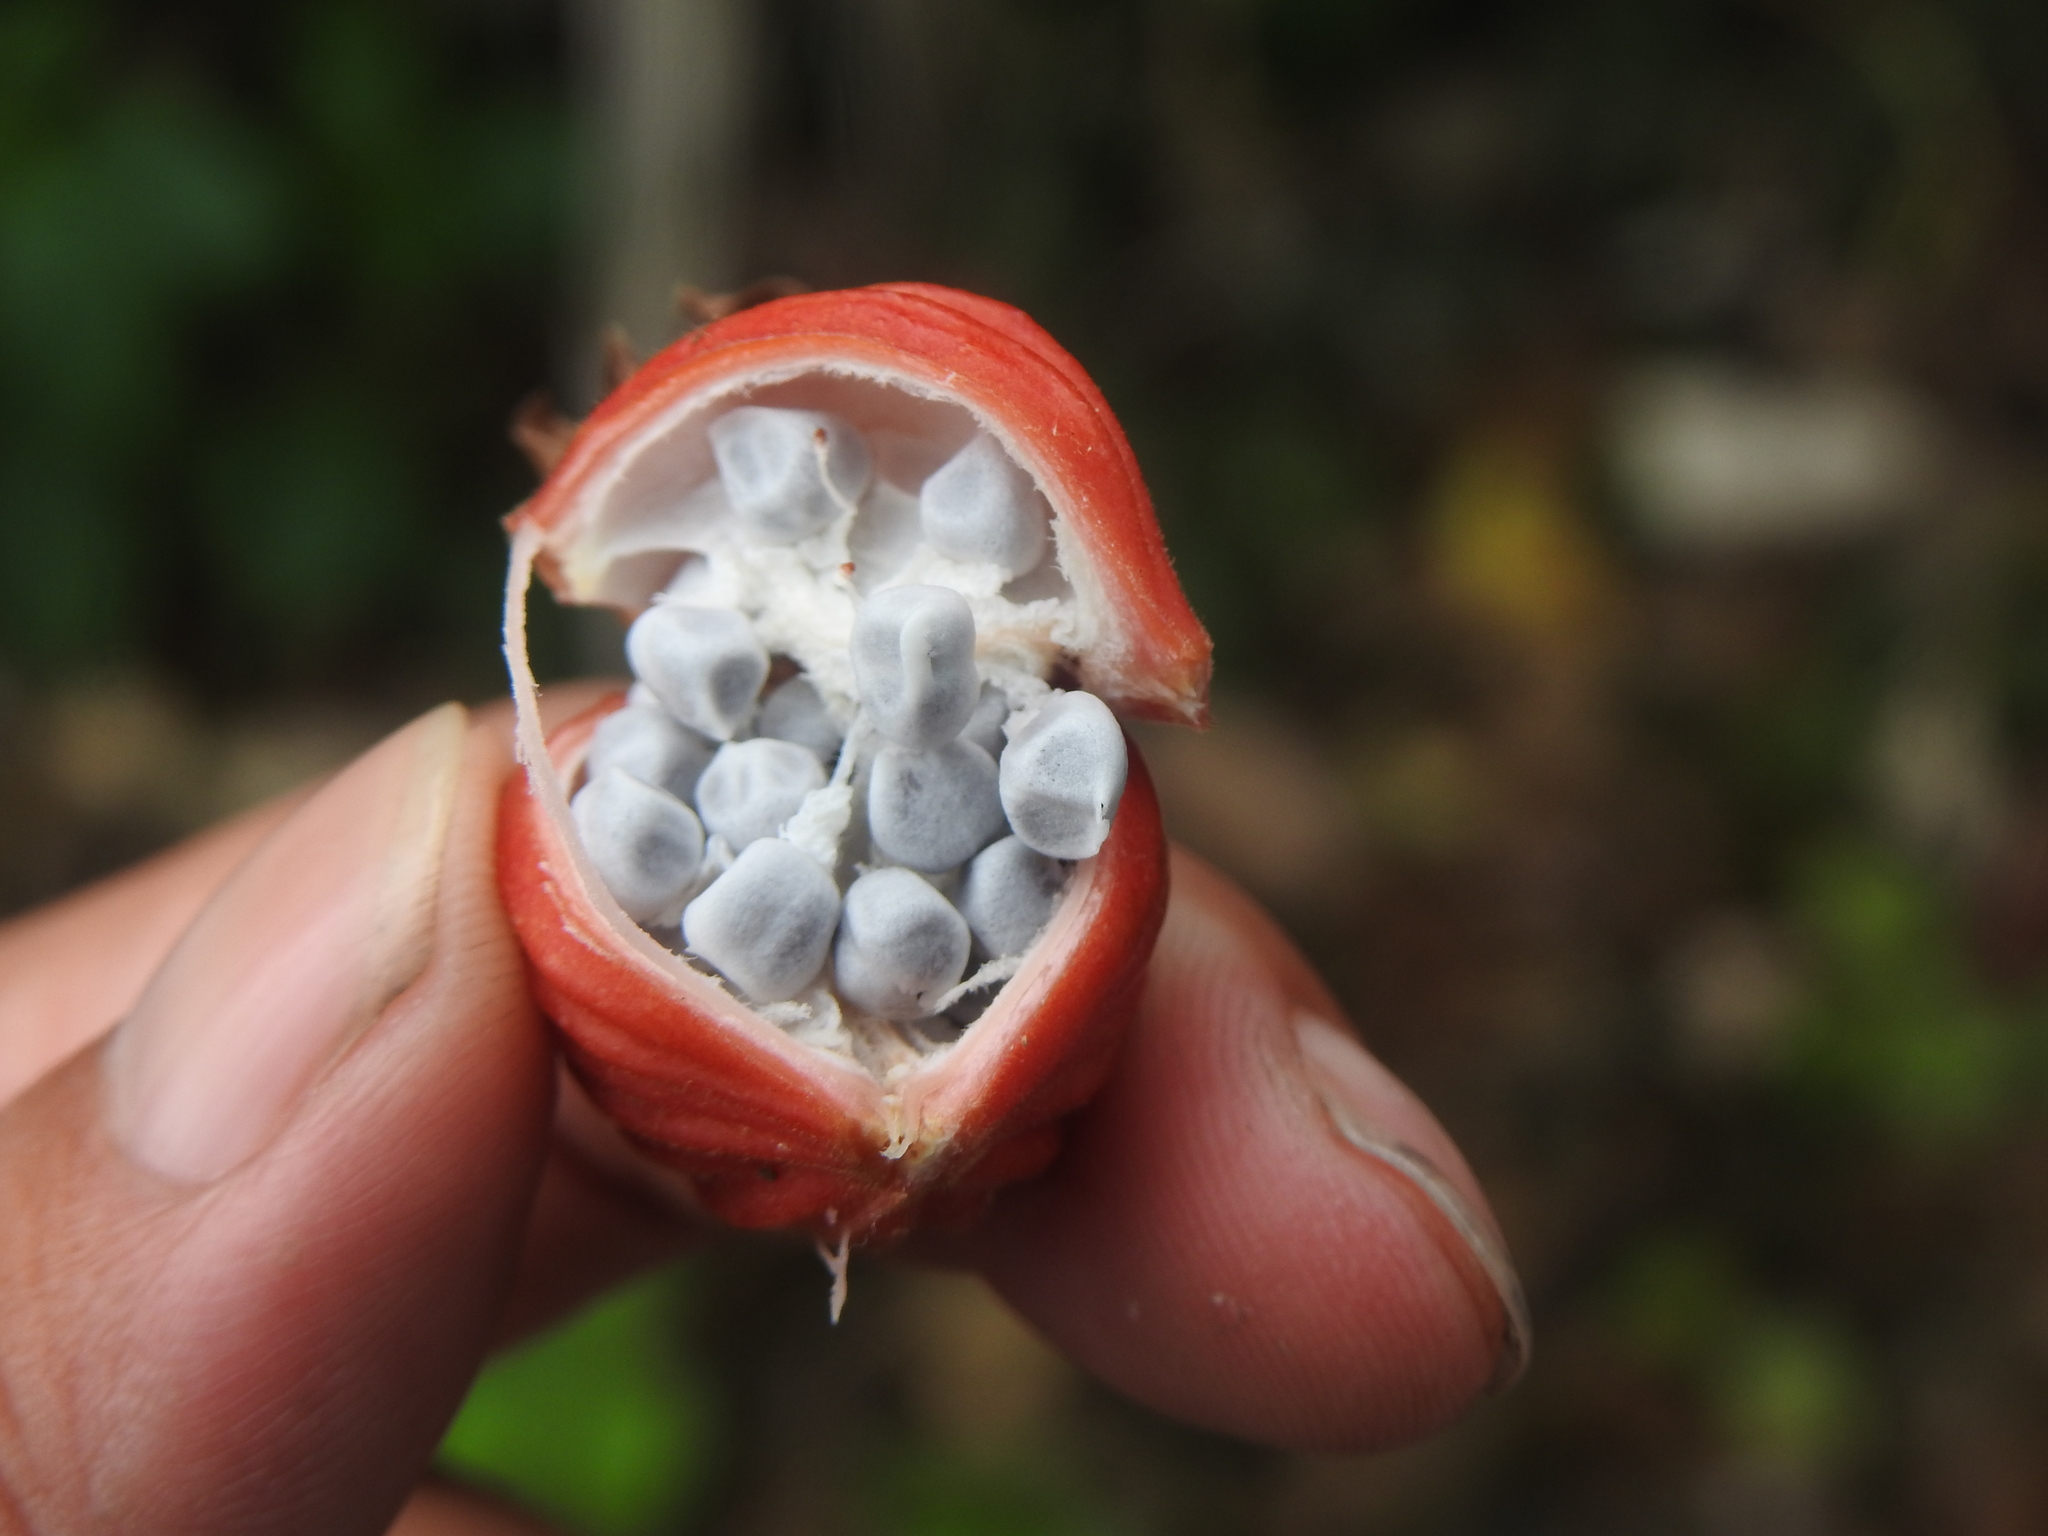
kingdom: Plantae
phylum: Tracheophyta
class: Liliopsida
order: Zingiberales
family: Zingiberaceae
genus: Alpinia
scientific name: Alpinia zerumbet
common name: Shellplant
